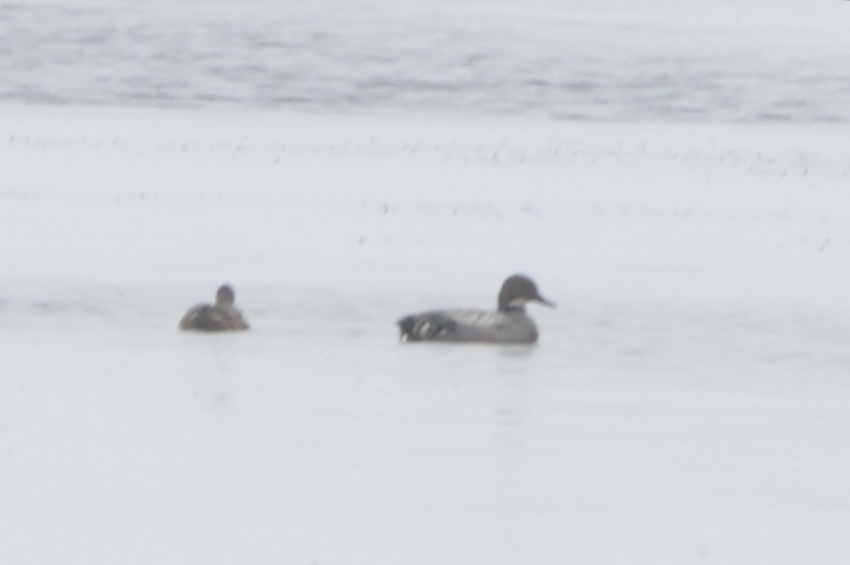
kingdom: Animalia
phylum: Chordata
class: Aves
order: Anseriformes
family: Anatidae
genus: Mareca
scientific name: Mareca falcata
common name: Falcated duck
